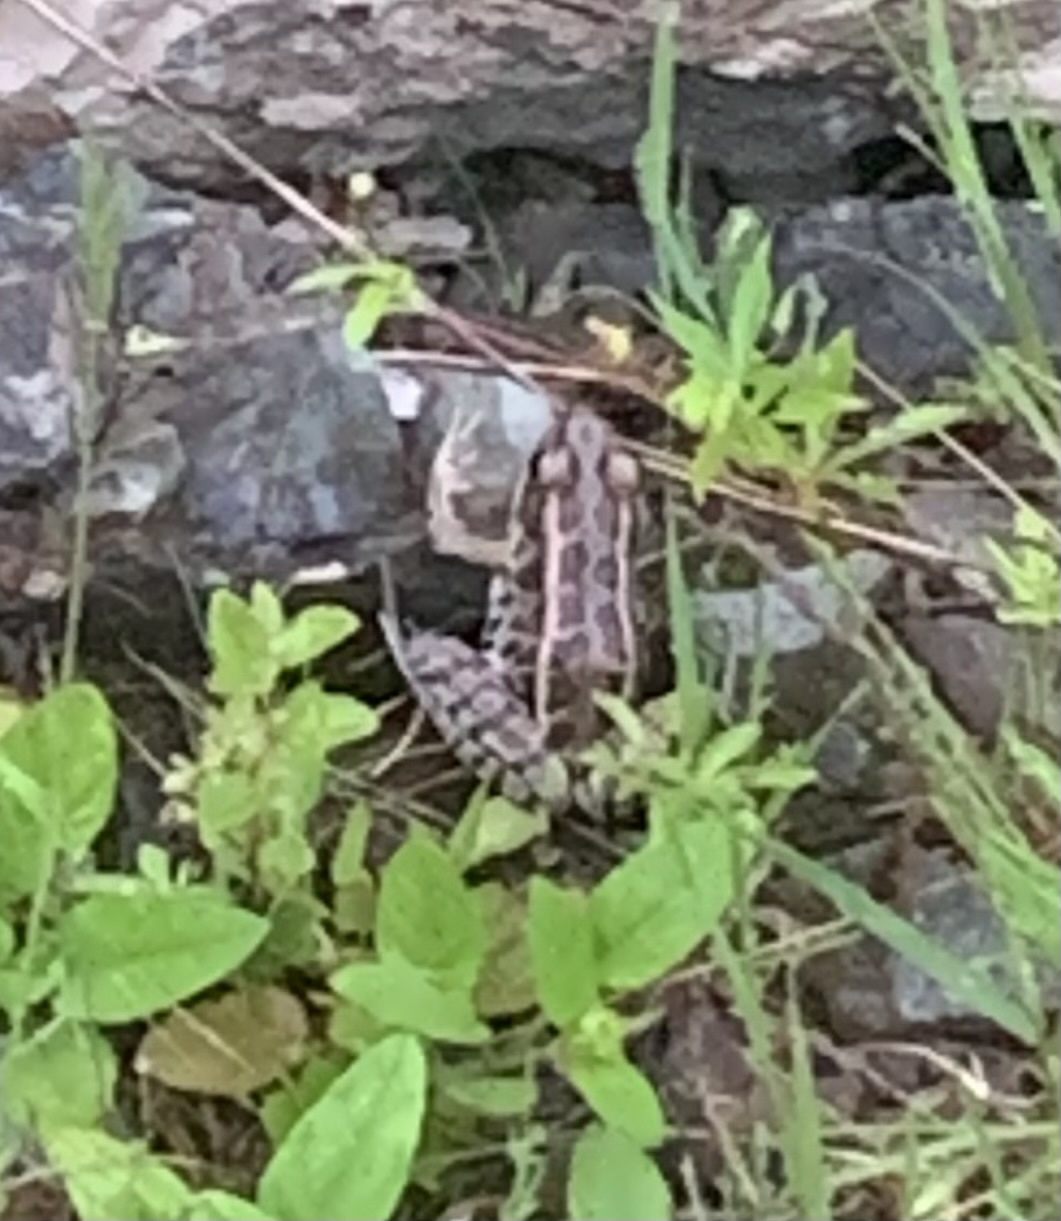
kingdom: Animalia
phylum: Chordata
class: Amphibia
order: Anura
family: Ranidae
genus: Lithobates
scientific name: Lithobates palustris
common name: Pickerel frog
